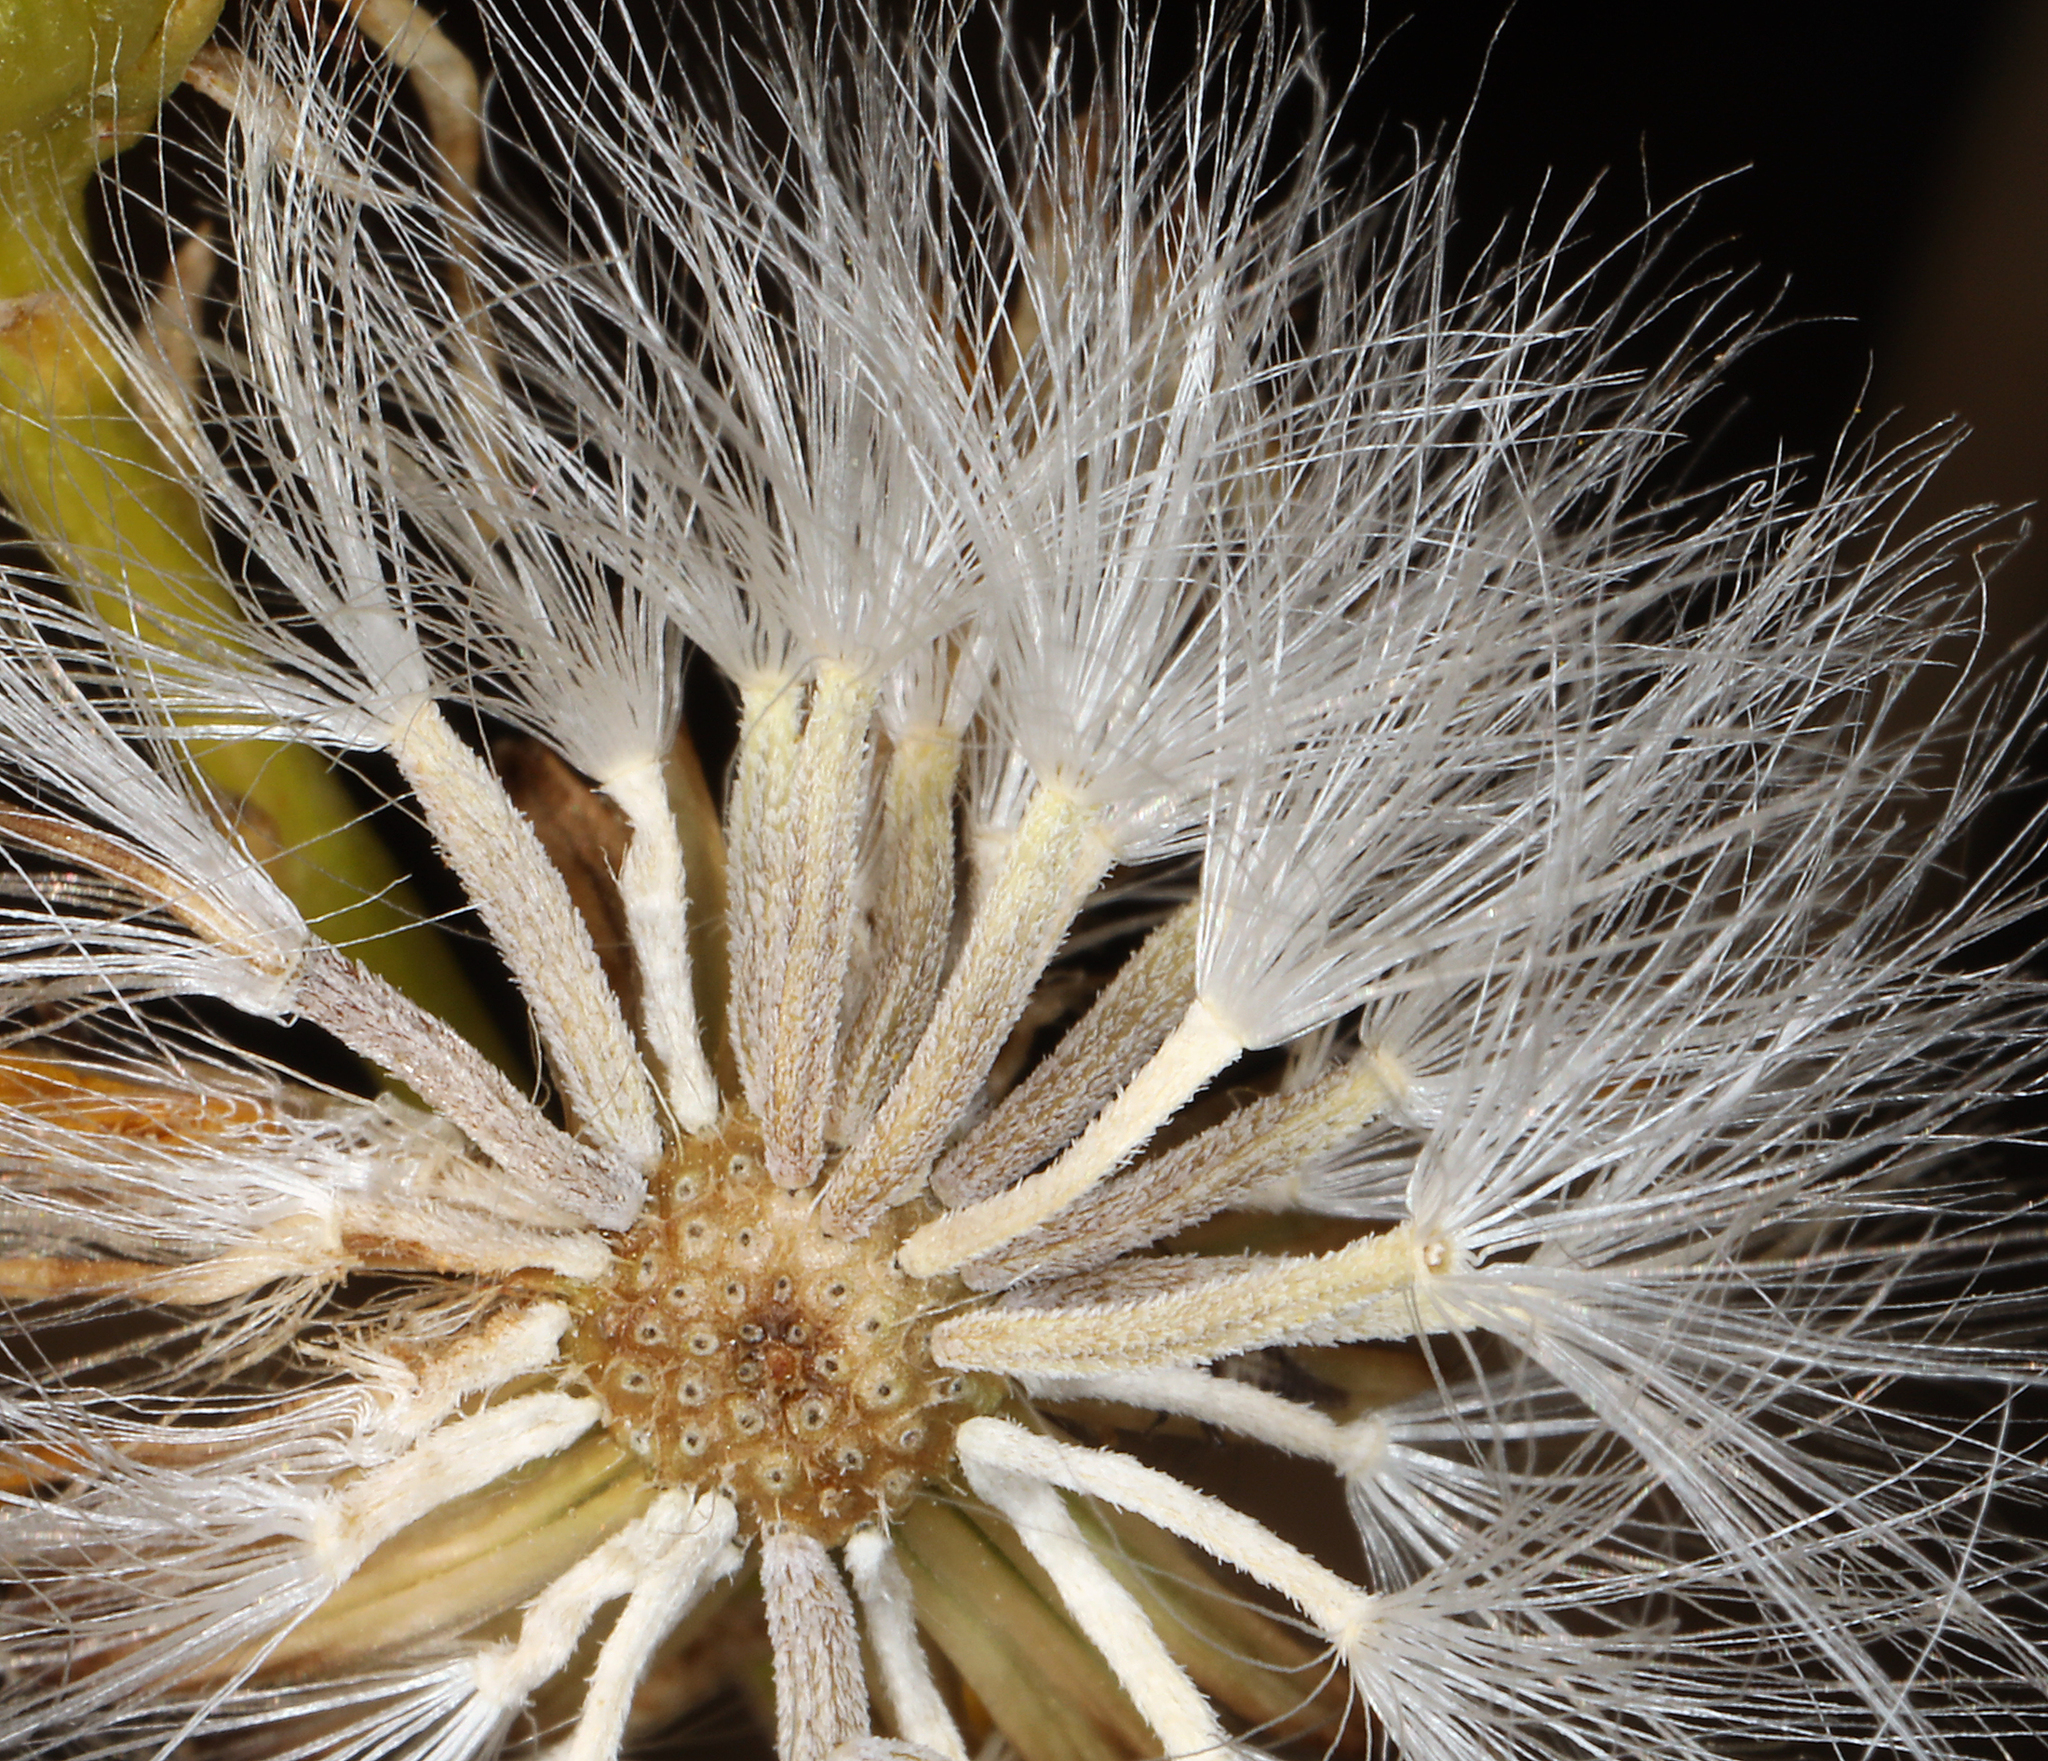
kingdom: Plantae
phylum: Tracheophyta
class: Magnoliopsida
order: Asterales
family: Asteraceae
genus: Senecio
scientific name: Senecio flaccidus
